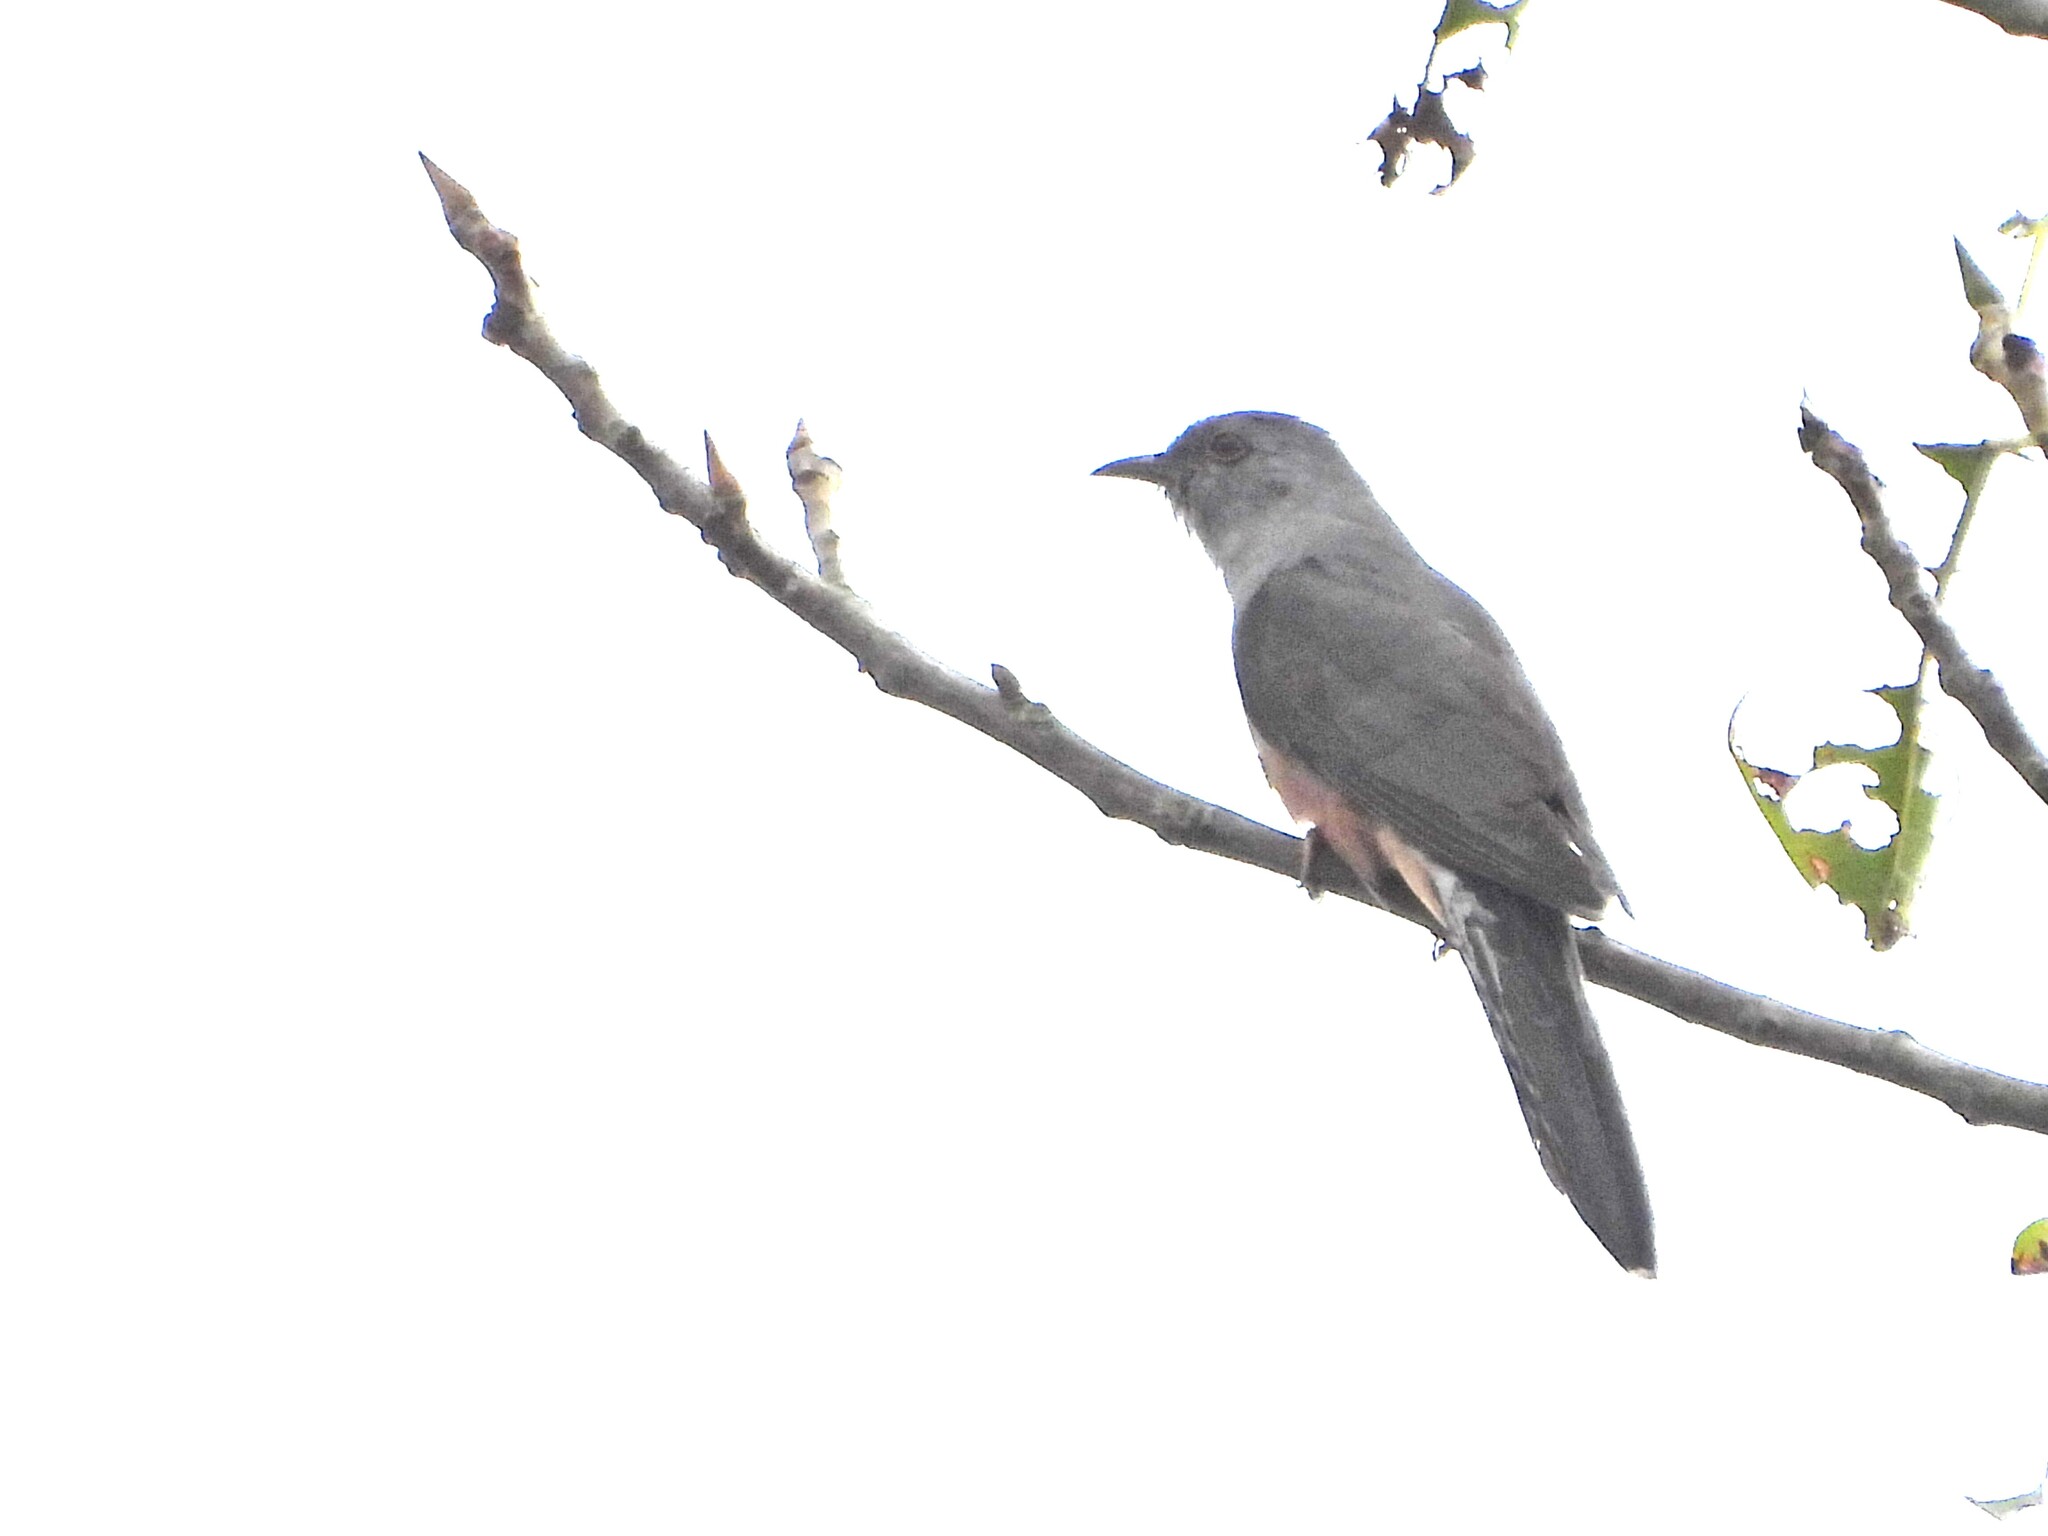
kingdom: Animalia
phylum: Chordata
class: Aves
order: Cuculiformes
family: Cuculidae
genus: Cacomantis
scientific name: Cacomantis merulinus
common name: Plaintive cuckoo
